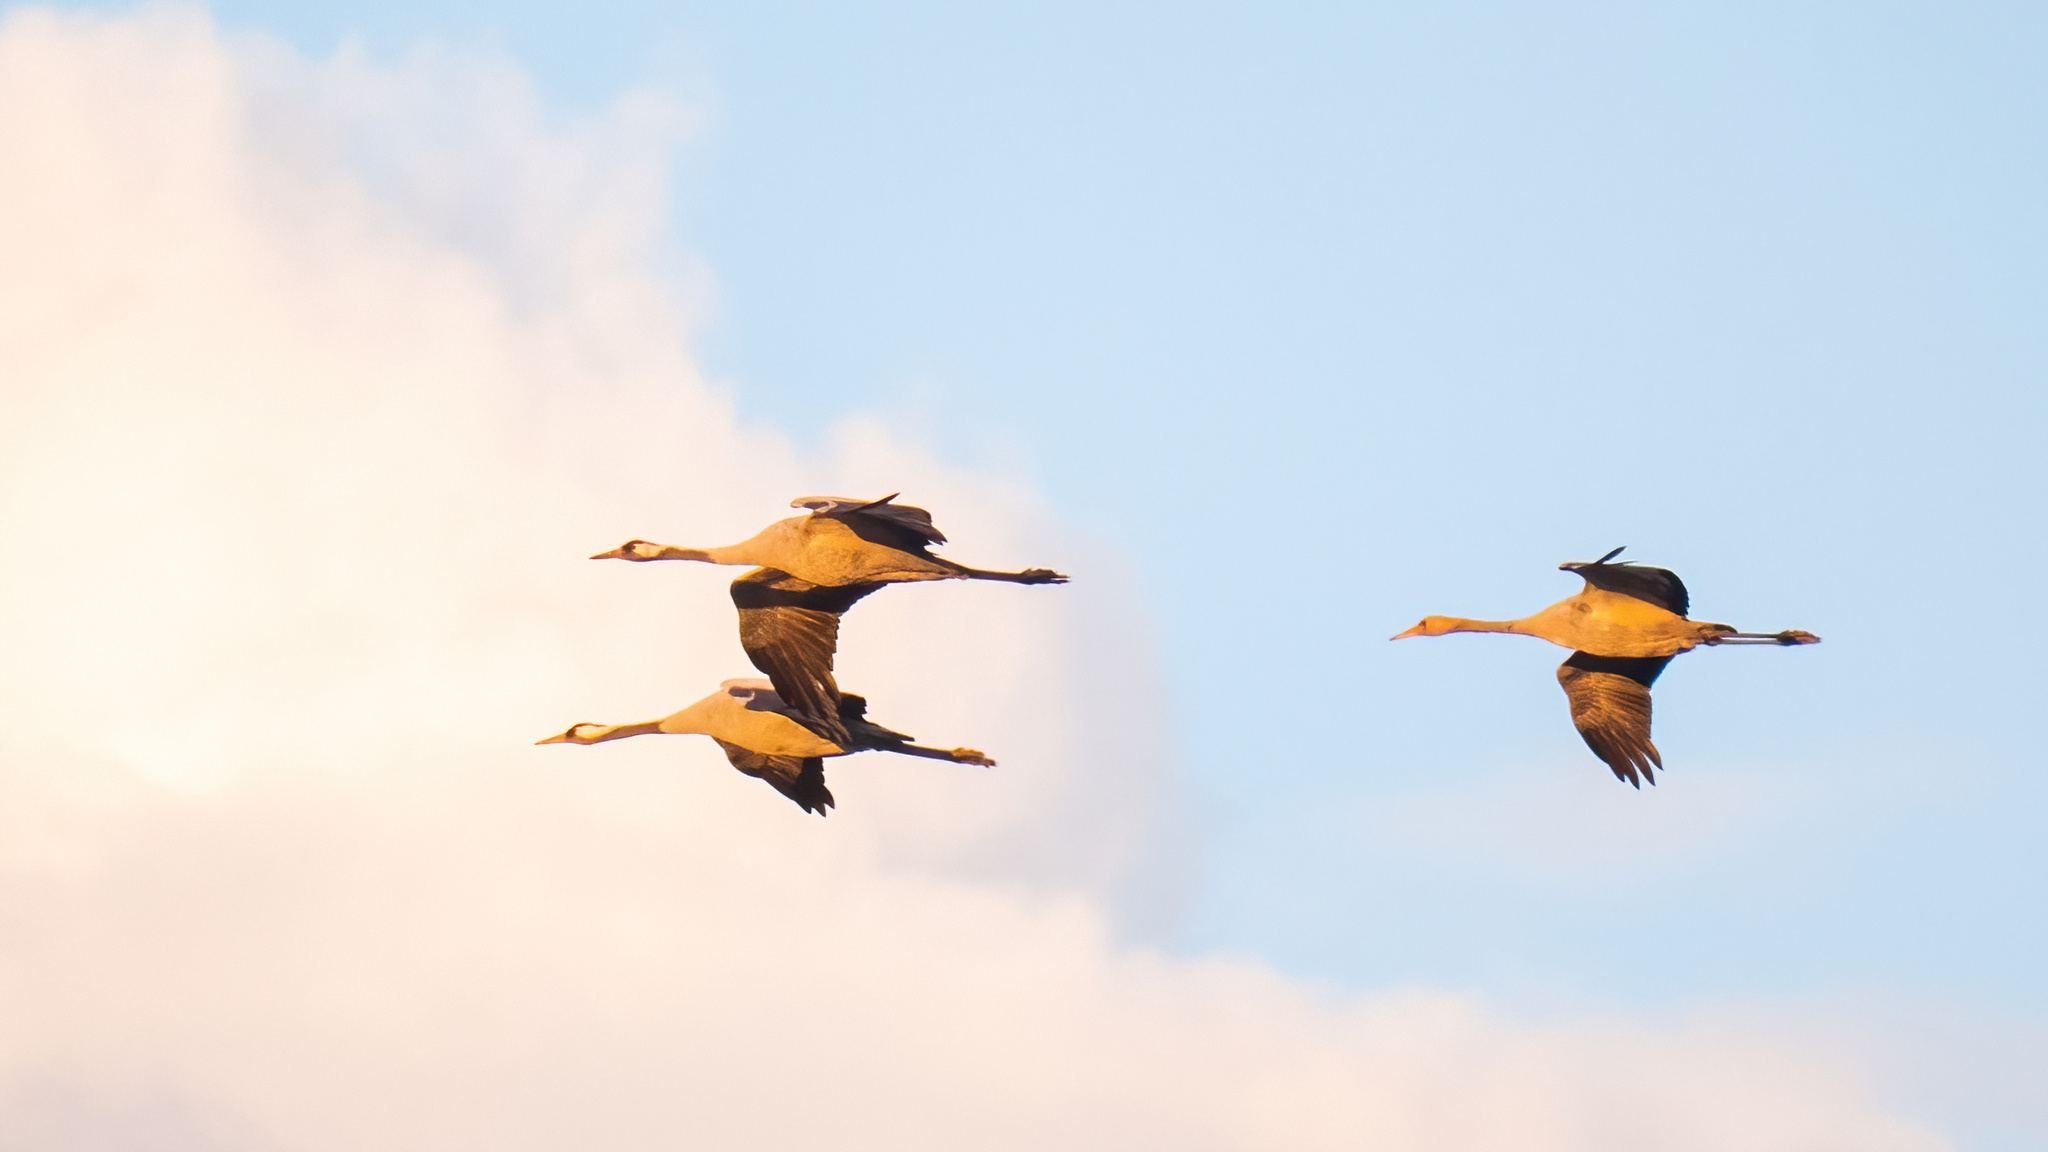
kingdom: Animalia
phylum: Chordata
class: Aves
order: Gruiformes
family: Gruidae
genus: Grus
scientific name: Grus grus
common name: Common crane
